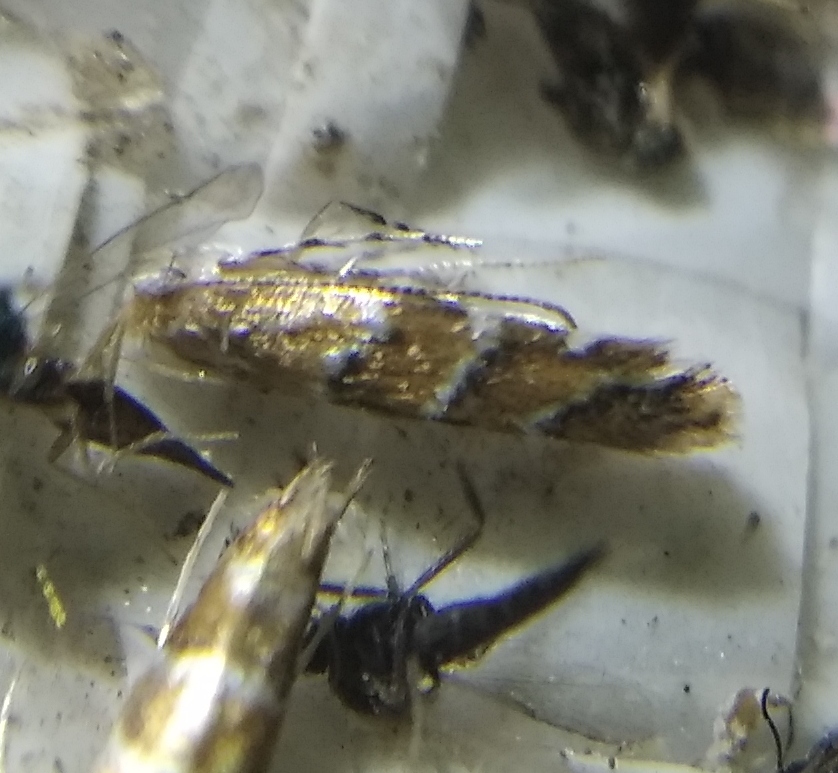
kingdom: Animalia
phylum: Arthropoda
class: Insecta
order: Lepidoptera
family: Gracillariidae
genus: Cameraria
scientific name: Cameraria ohridella
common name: Horse-chestnut leaf-miner
